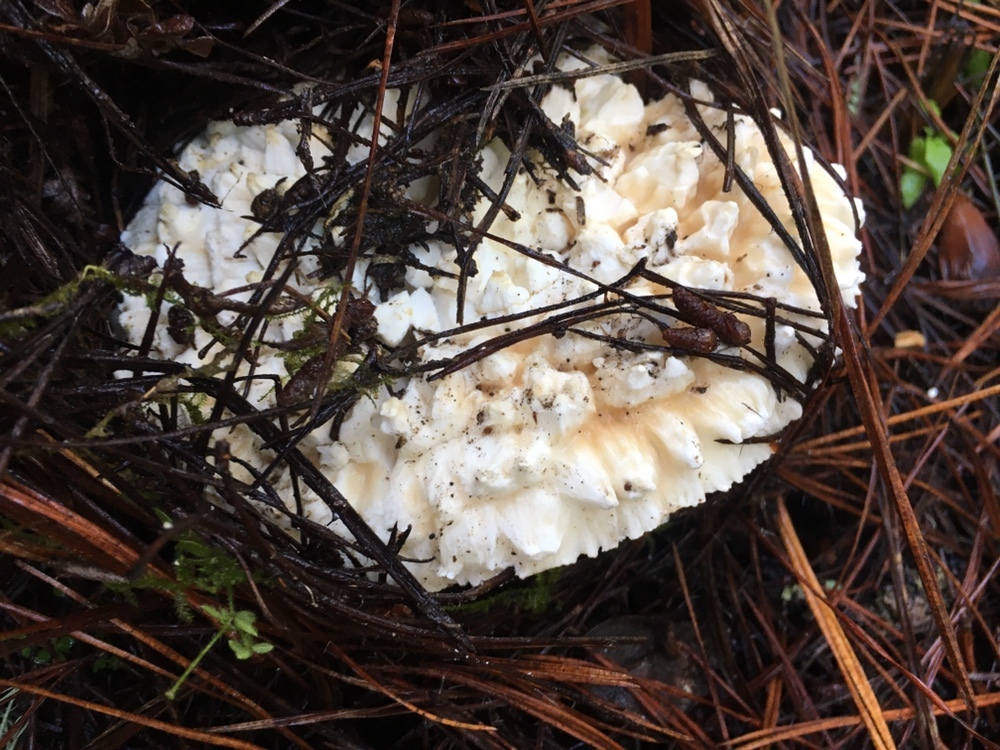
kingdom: Fungi
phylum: Basidiomycota
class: Agaricomycetes
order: Agaricales
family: Amanitaceae
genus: Amanita
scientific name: Amanita magniverrucata
